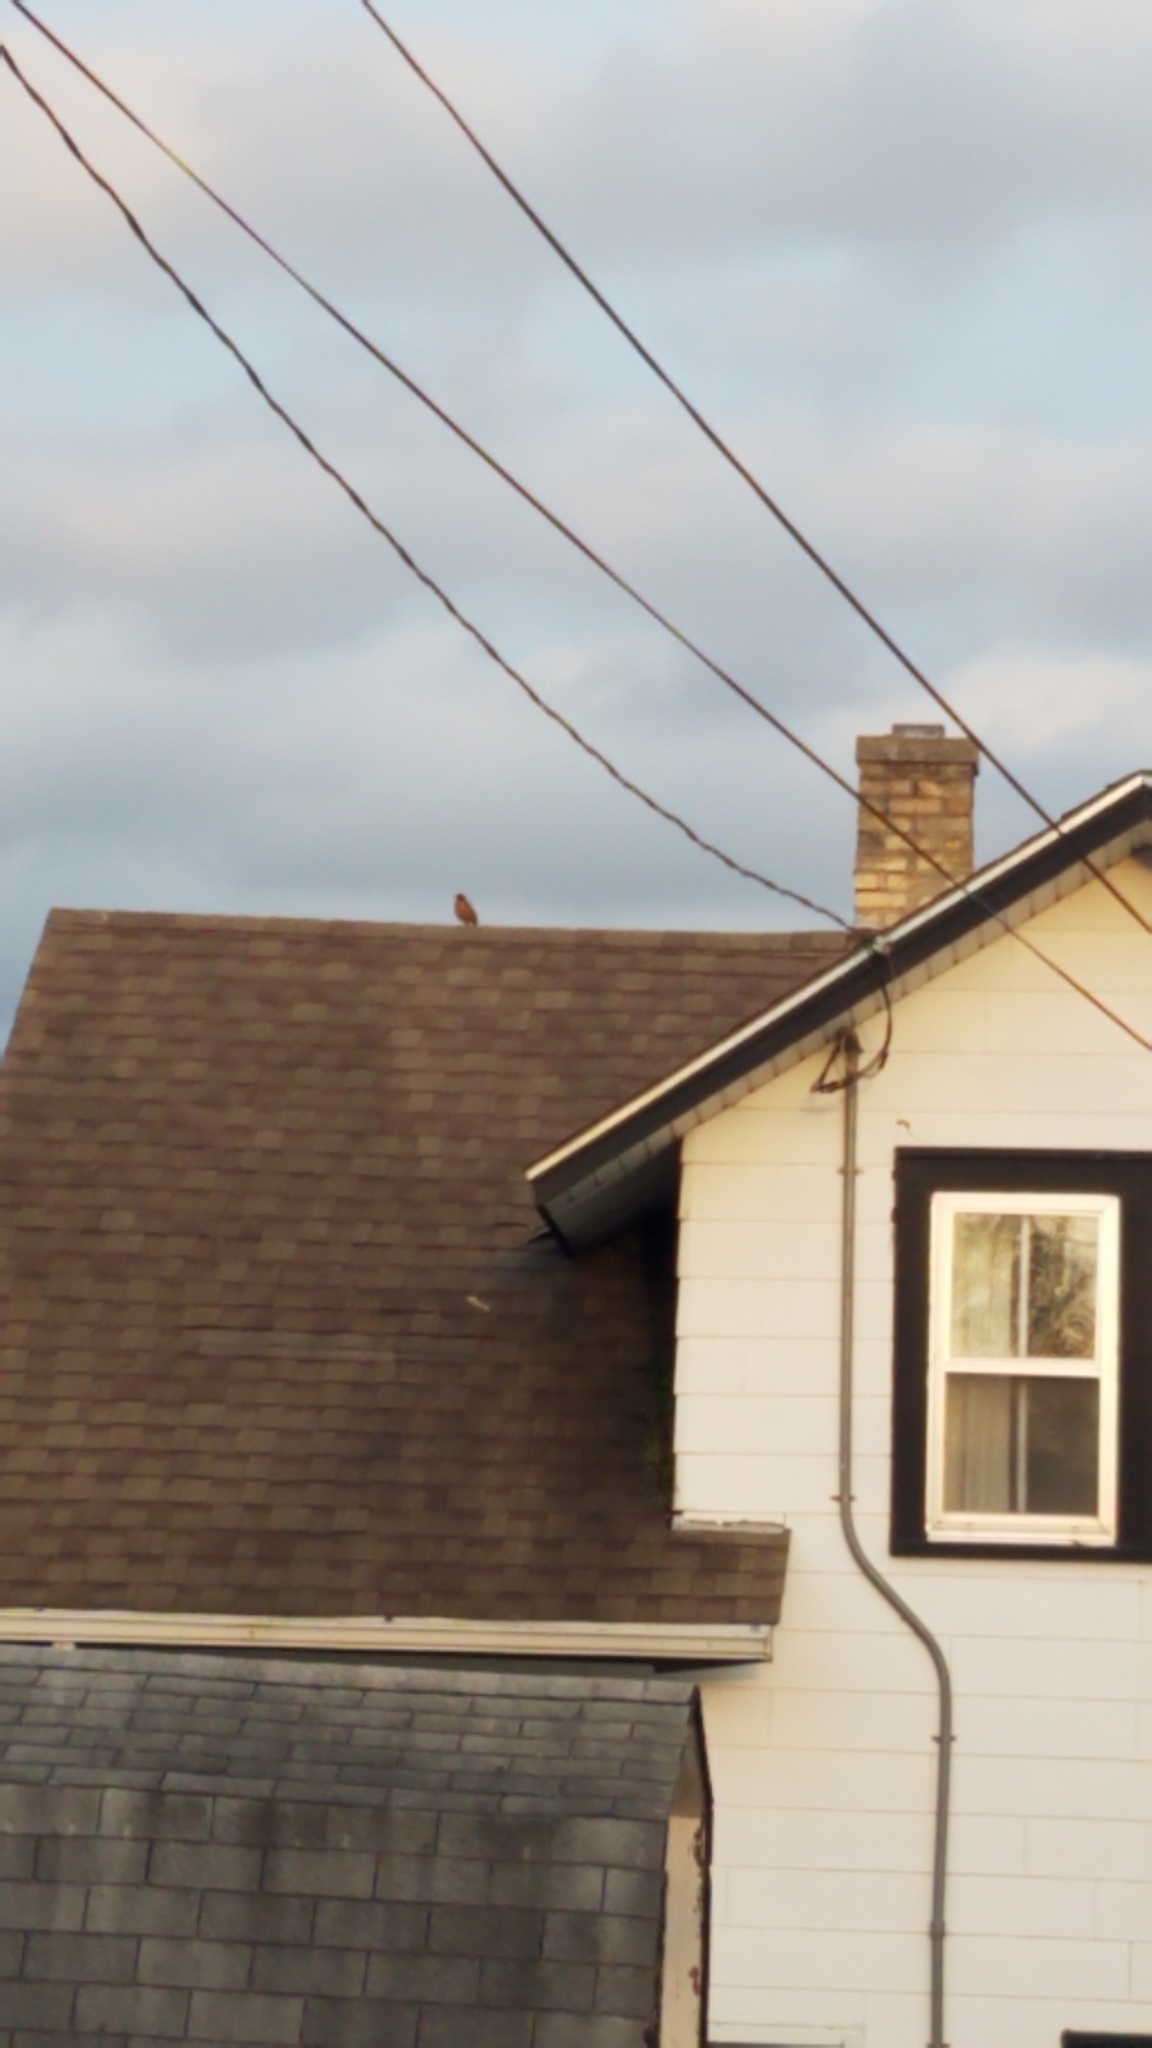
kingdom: Animalia
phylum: Chordata
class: Aves
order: Passeriformes
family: Turdidae
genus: Turdus
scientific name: Turdus migratorius
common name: American robin
